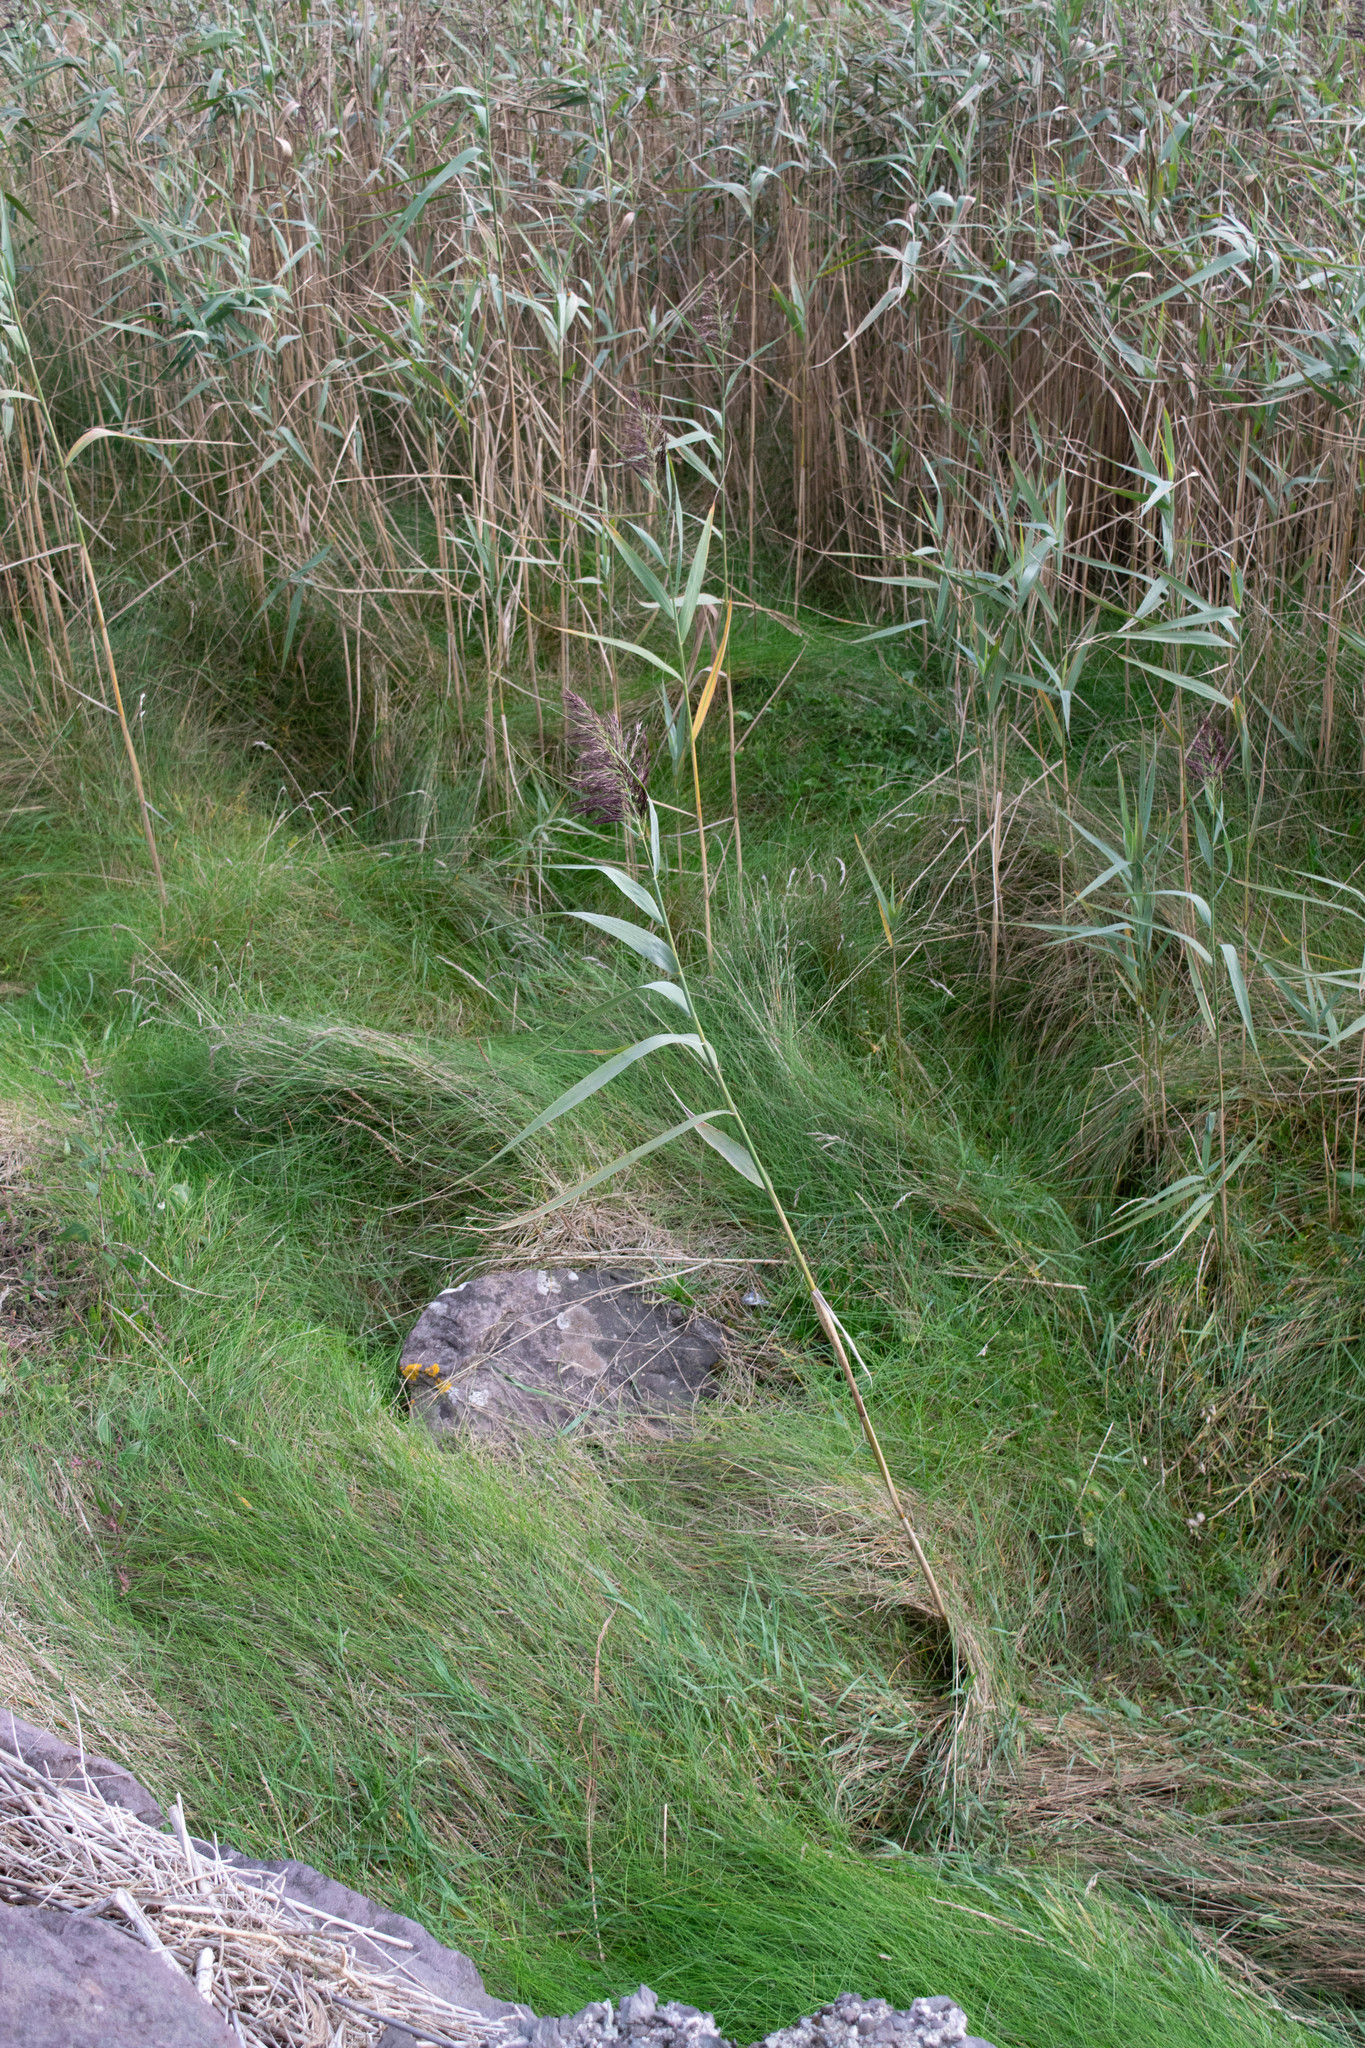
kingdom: Plantae
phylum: Tracheophyta
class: Liliopsida
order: Poales
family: Poaceae
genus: Phragmites
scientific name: Phragmites australis
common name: Common reed
